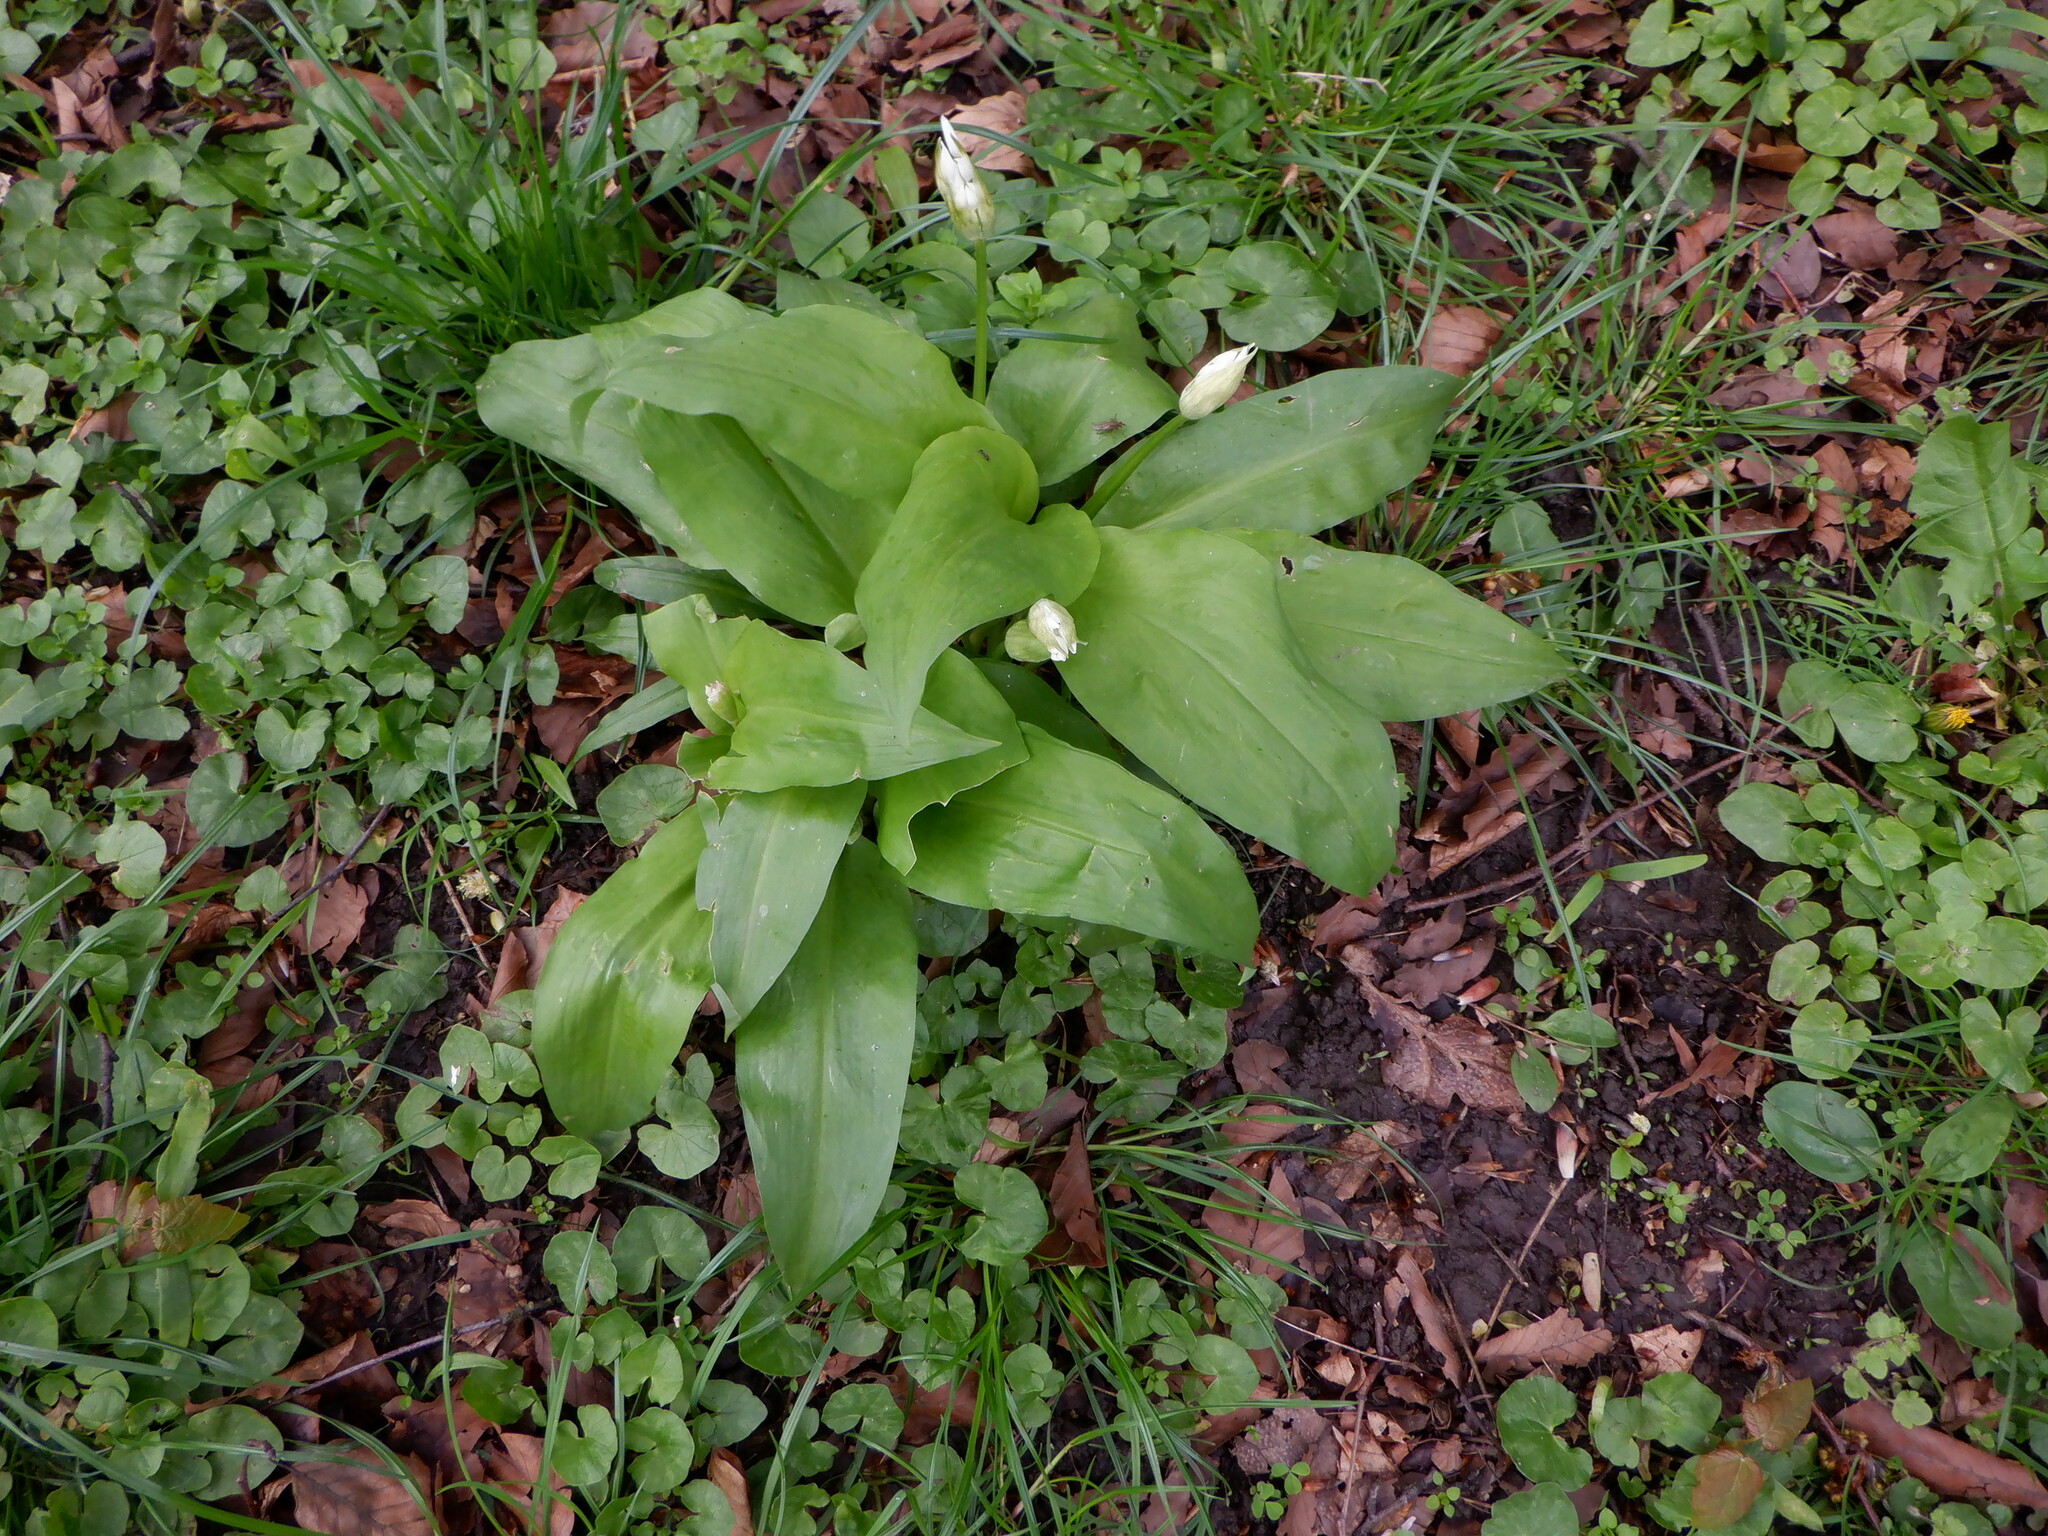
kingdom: Plantae
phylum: Tracheophyta
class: Liliopsida
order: Asparagales
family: Amaryllidaceae
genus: Allium
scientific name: Allium ursinum
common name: Ramsons
